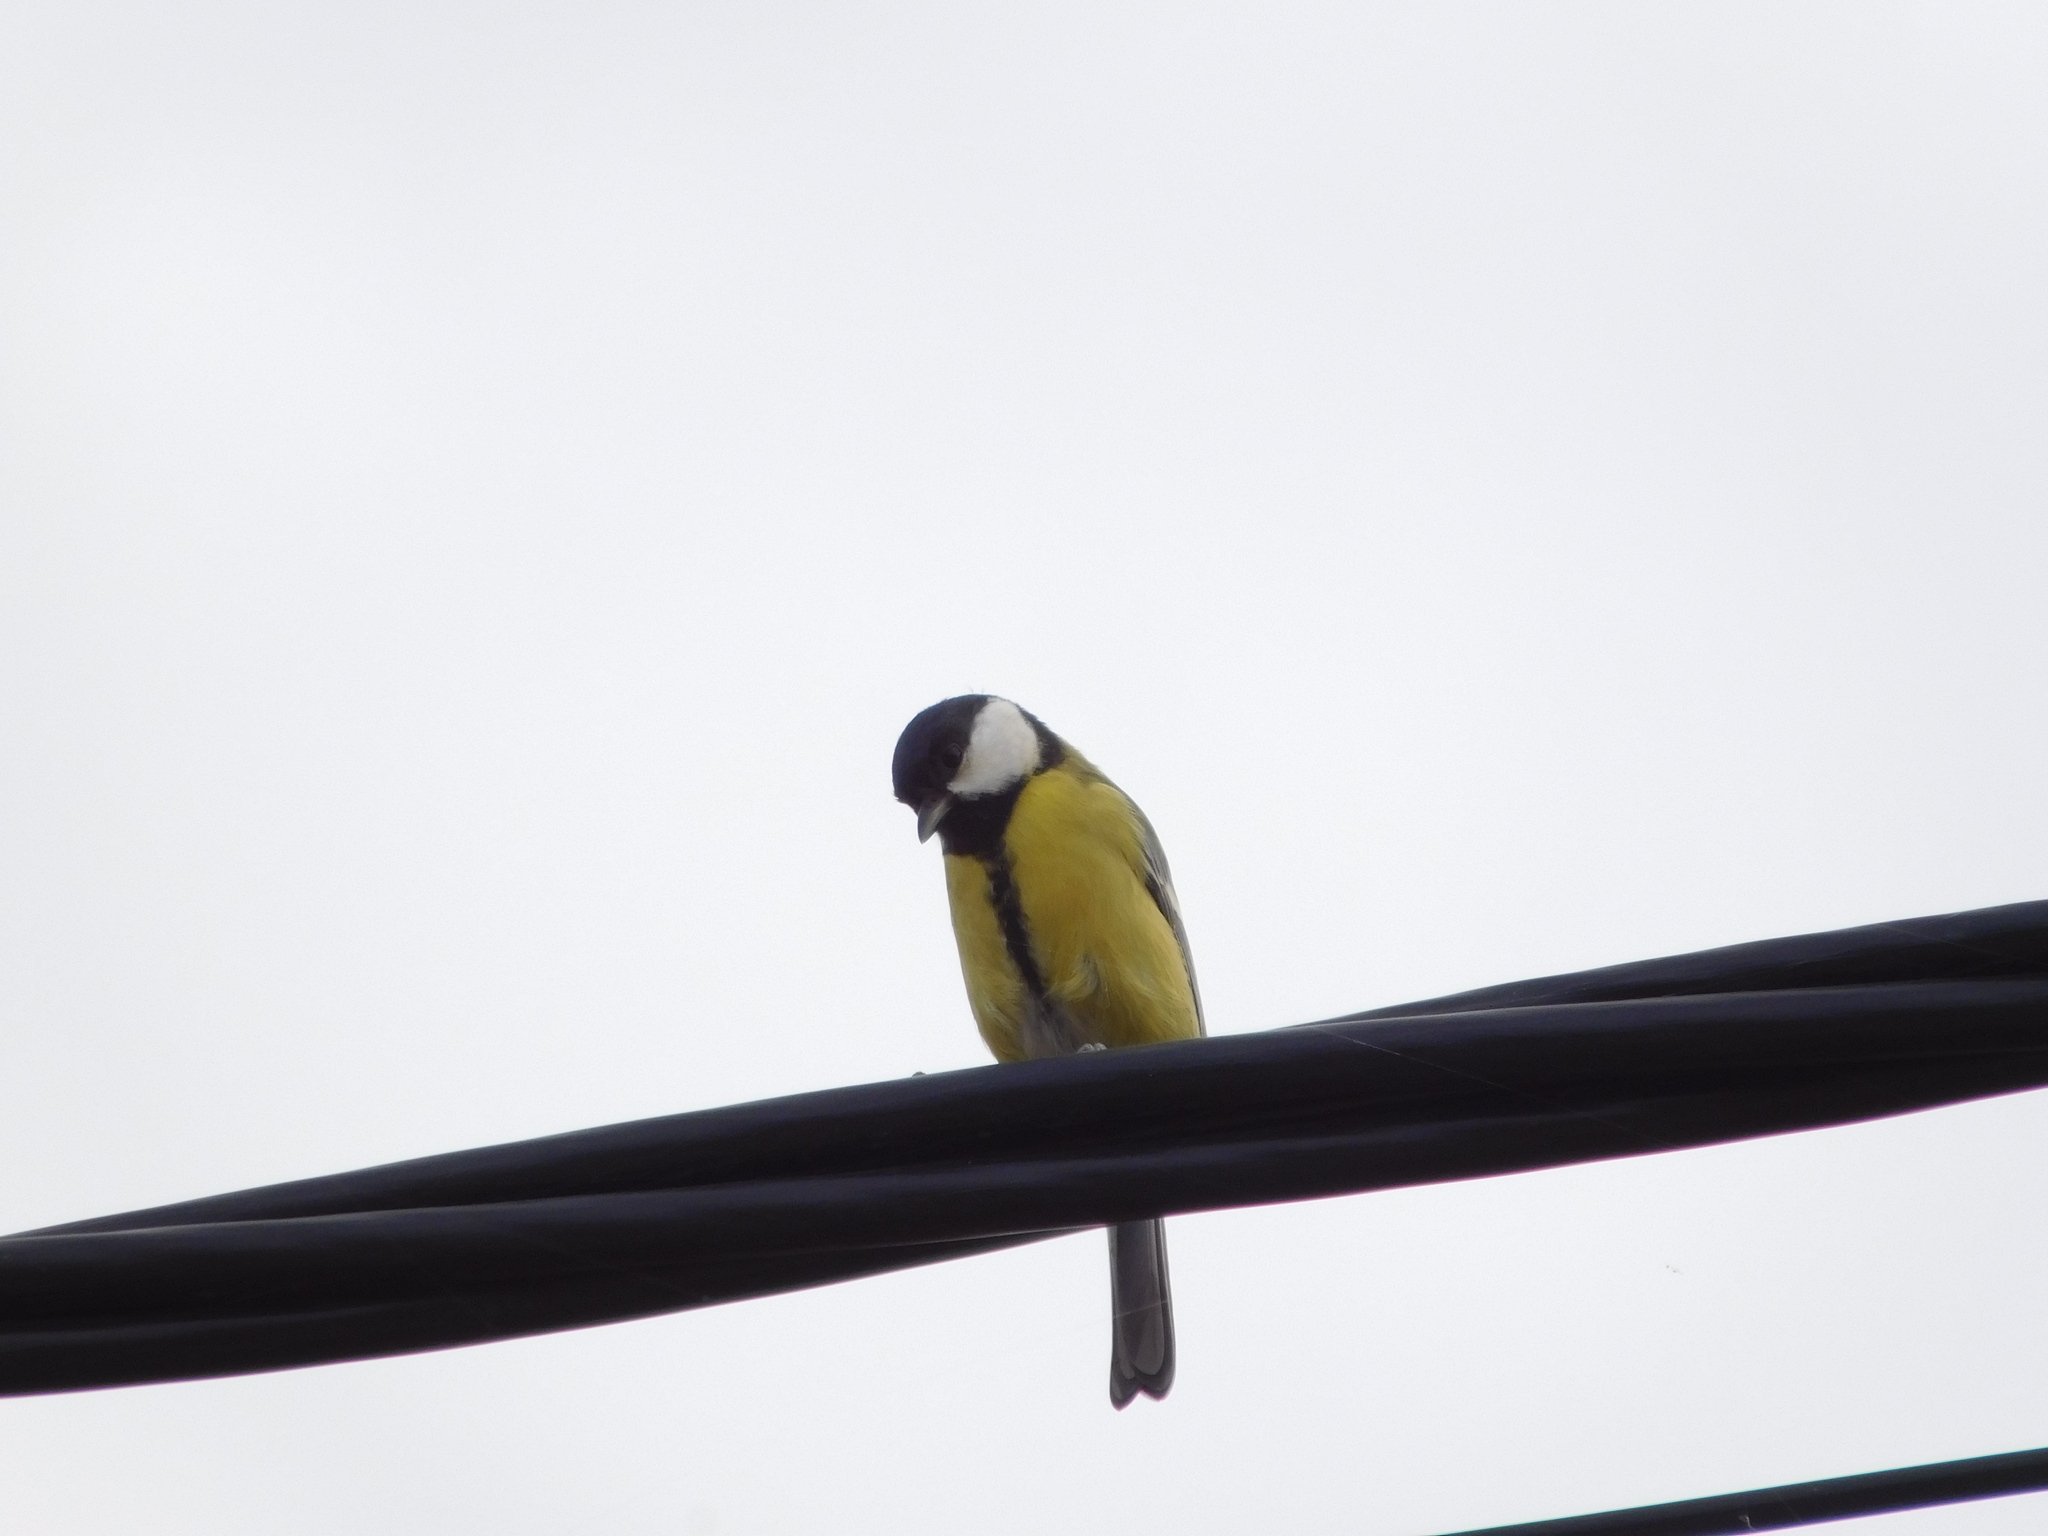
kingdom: Animalia
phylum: Chordata
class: Aves
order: Passeriformes
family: Paridae
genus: Parus
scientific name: Parus major
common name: Great tit
